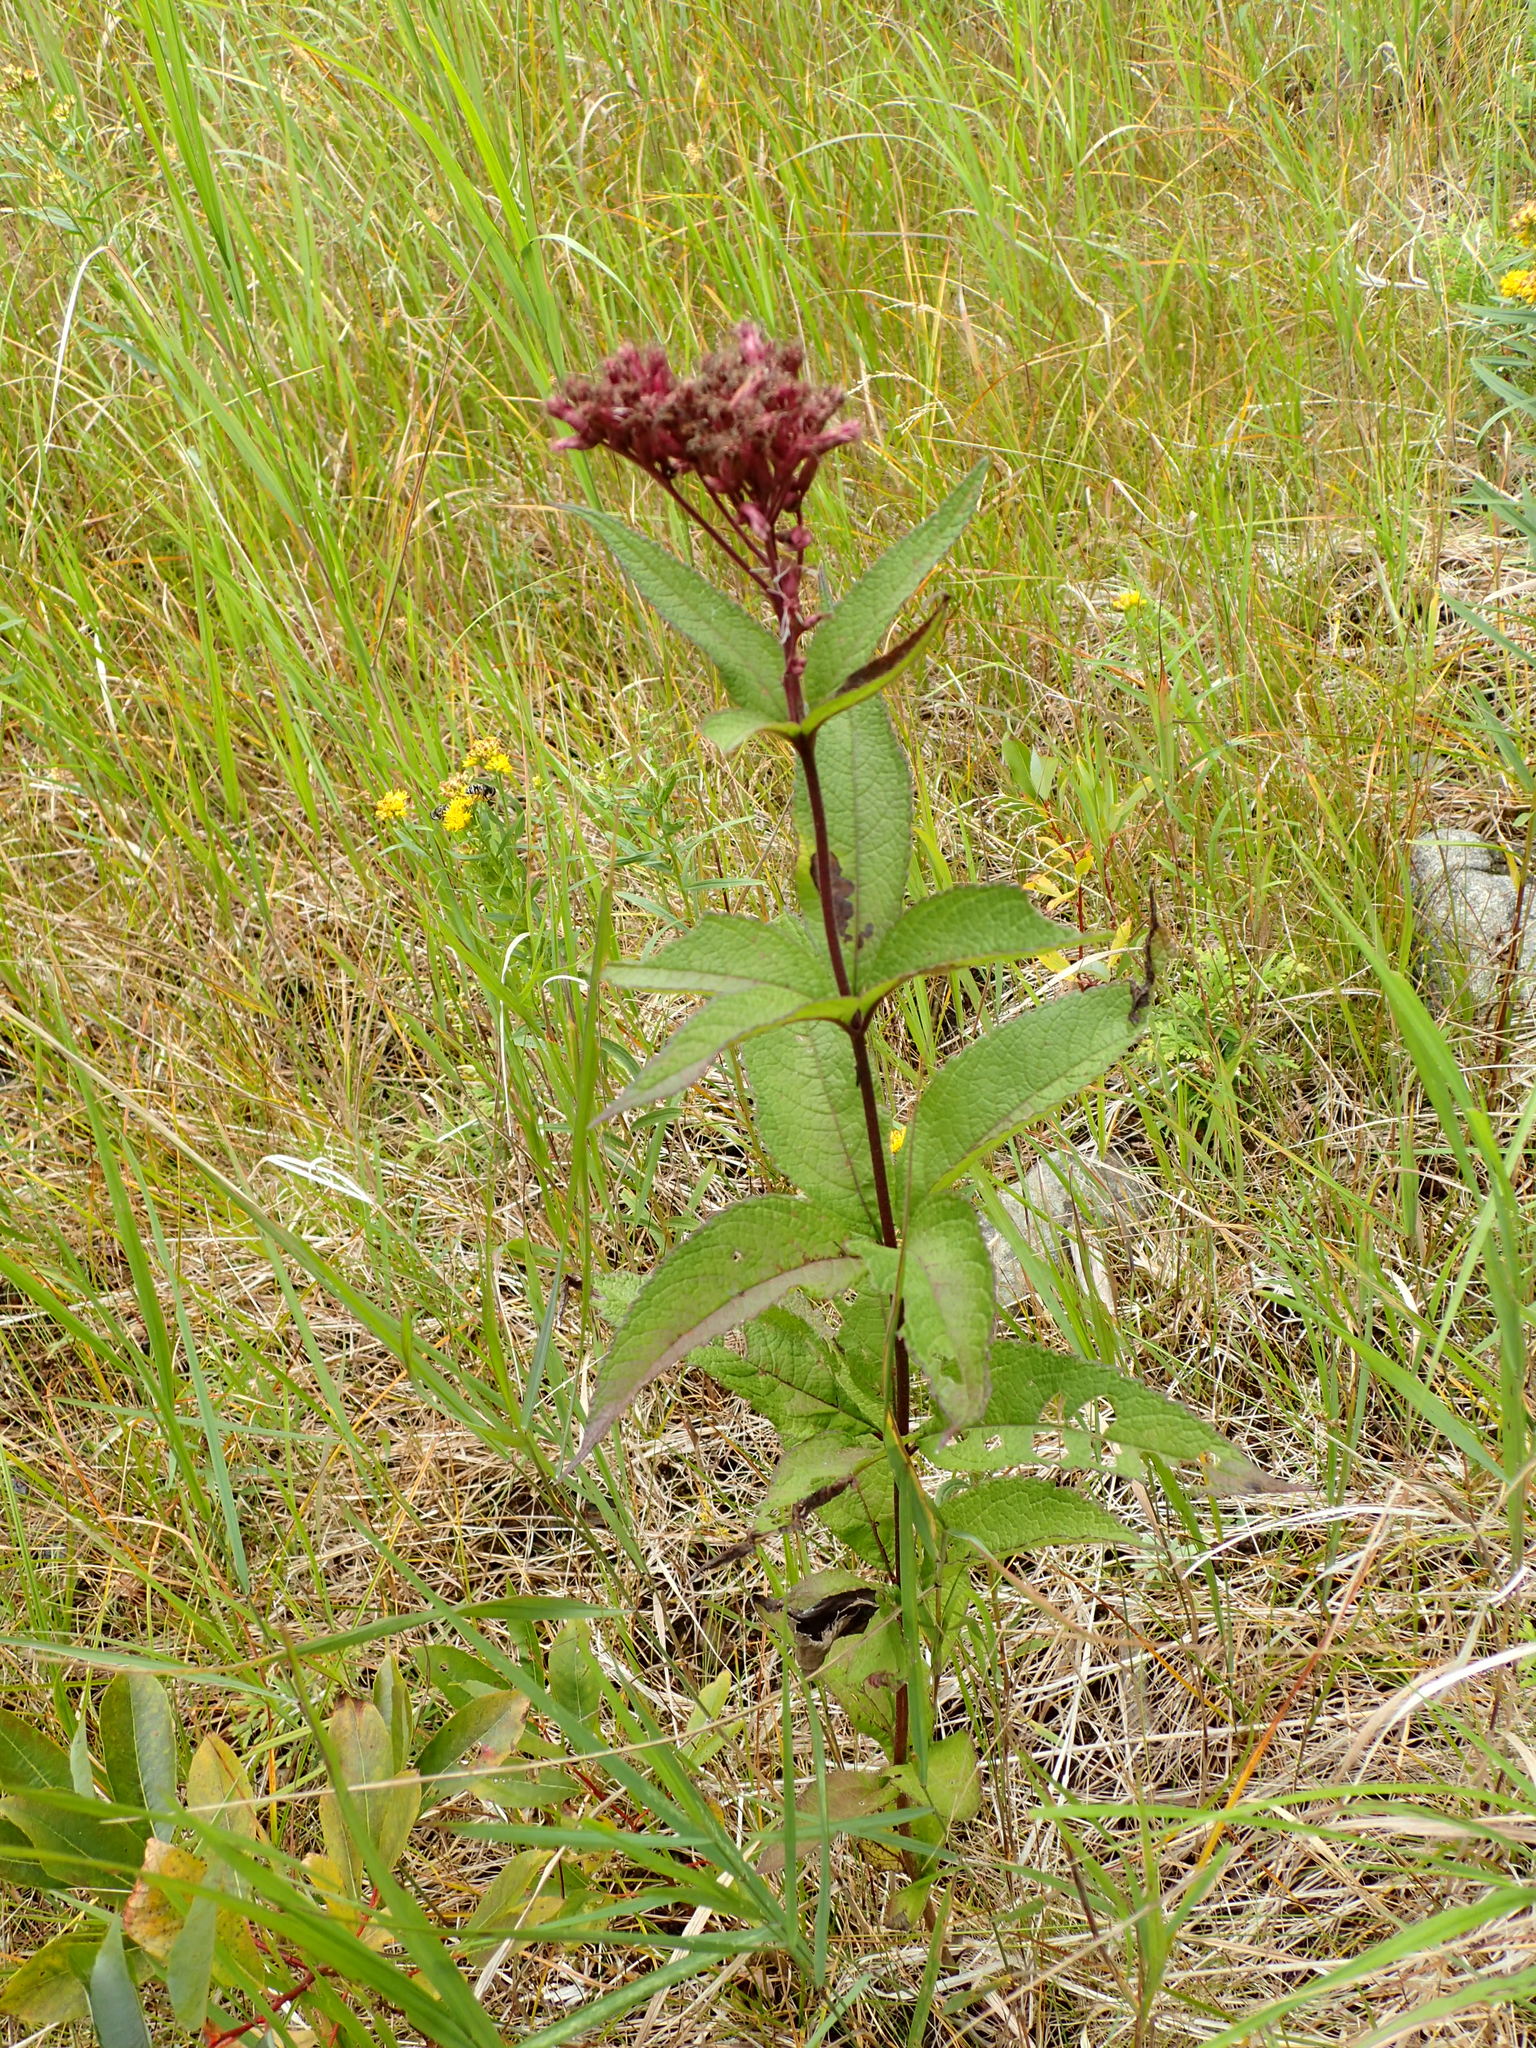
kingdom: Plantae
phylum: Tracheophyta
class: Magnoliopsida
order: Asterales
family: Asteraceae
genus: Eutrochium
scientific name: Eutrochium maculatum
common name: Spotted joe pye weed
